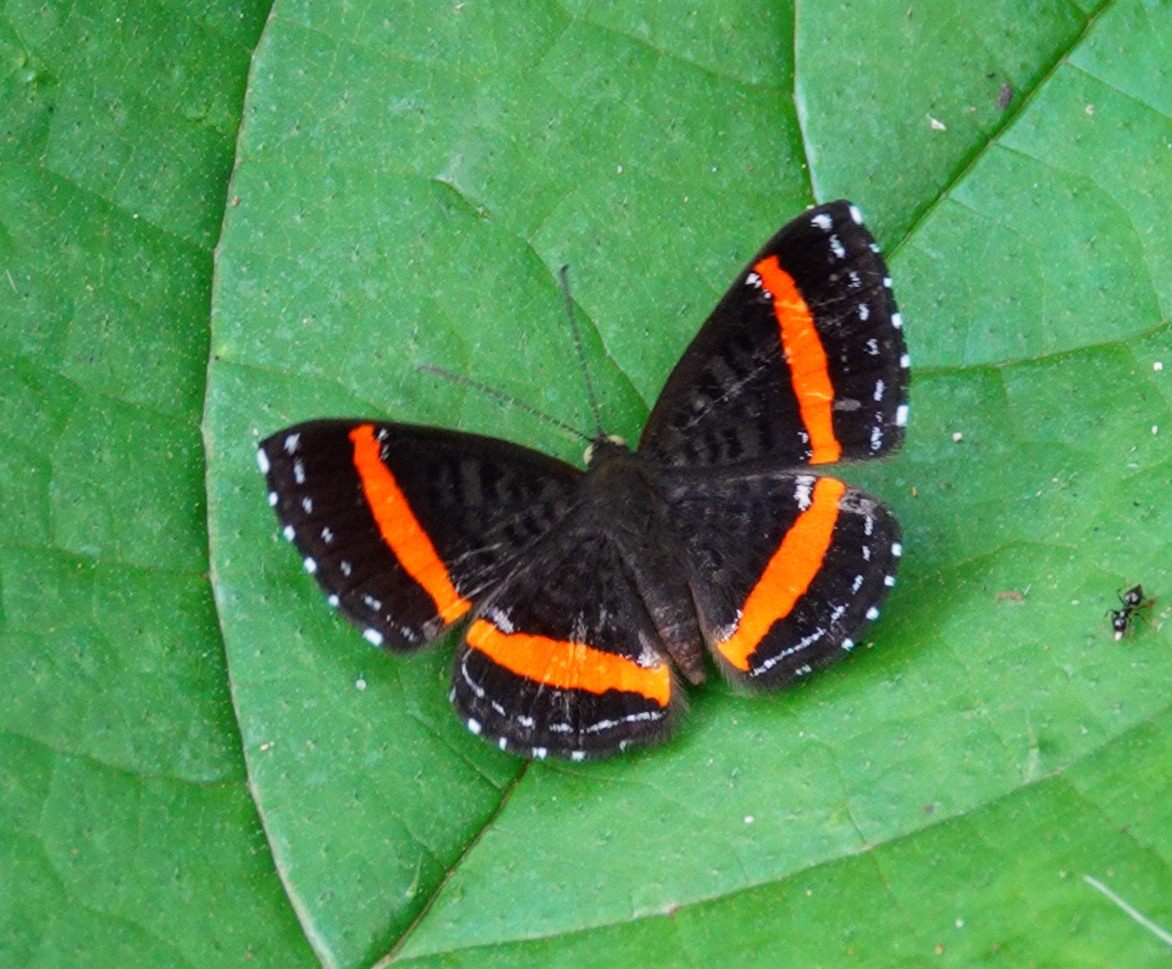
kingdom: Animalia
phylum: Arthropoda
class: Insecta
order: Lepidoptera
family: Riodinidae
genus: Crocozona
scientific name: Crocozona coecias
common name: Orange-banded gem
